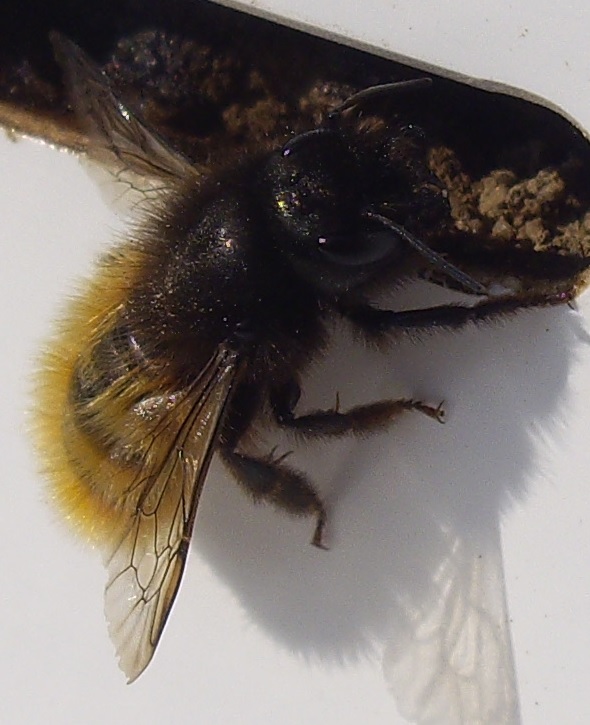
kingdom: Animalia
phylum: Arthropoda
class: Insecta
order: Hymenoptera
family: Megachilidae
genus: Osmia
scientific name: Osmia cornuta
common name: Mason bee
